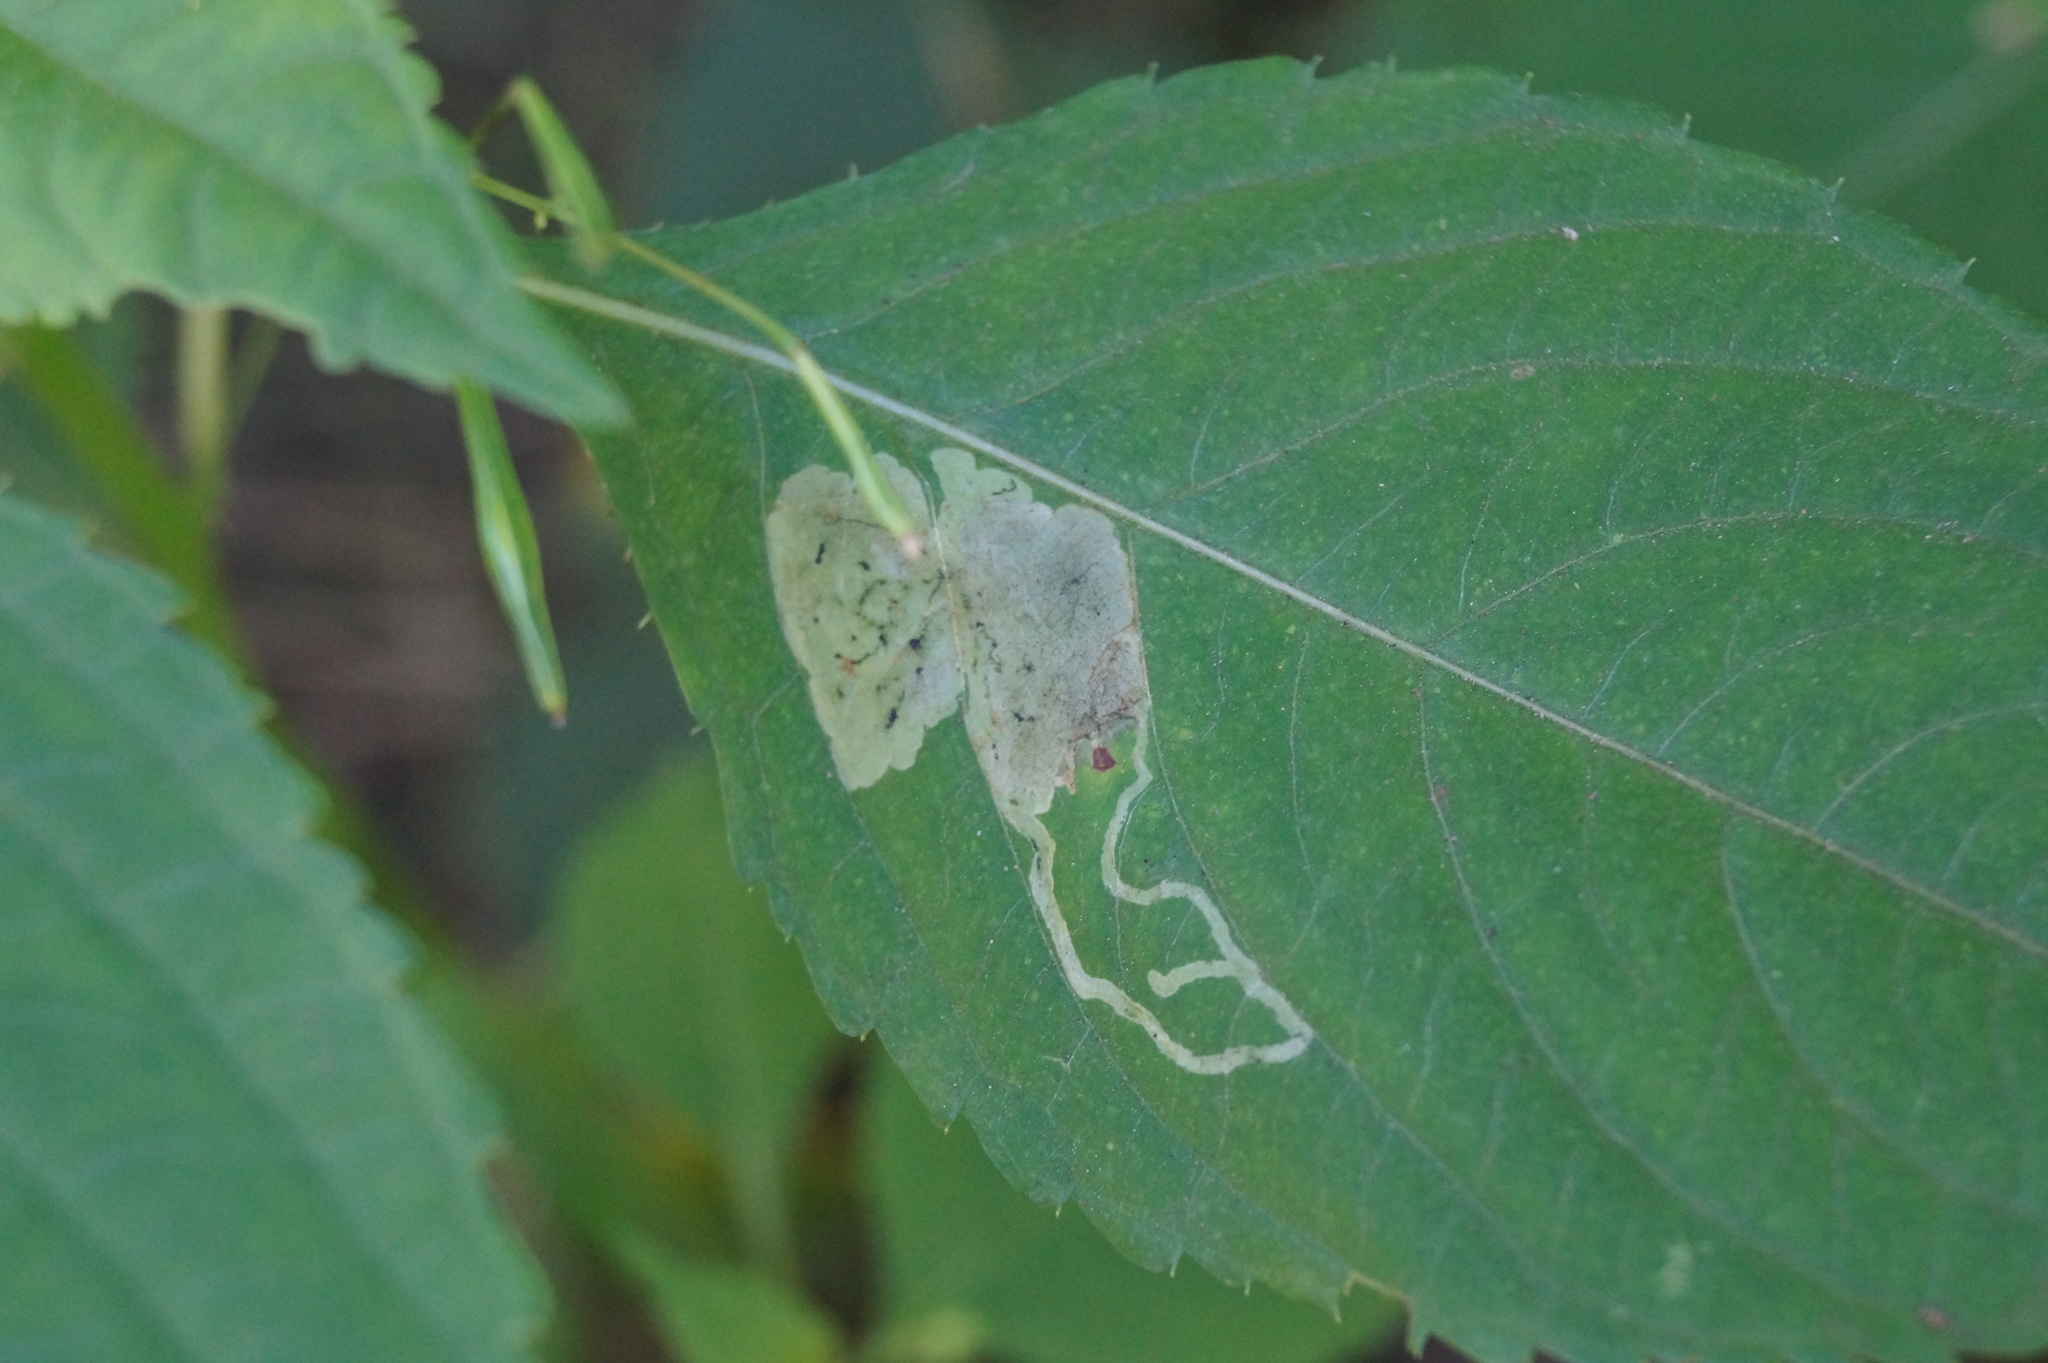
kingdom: Animalia
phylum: Arthropoda
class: Insecta
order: Diptera
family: Agromyzidae
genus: Phytoliriomyza
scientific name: Phytoliriomyza melampyga
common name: Jewelweed leaf-miner fly
